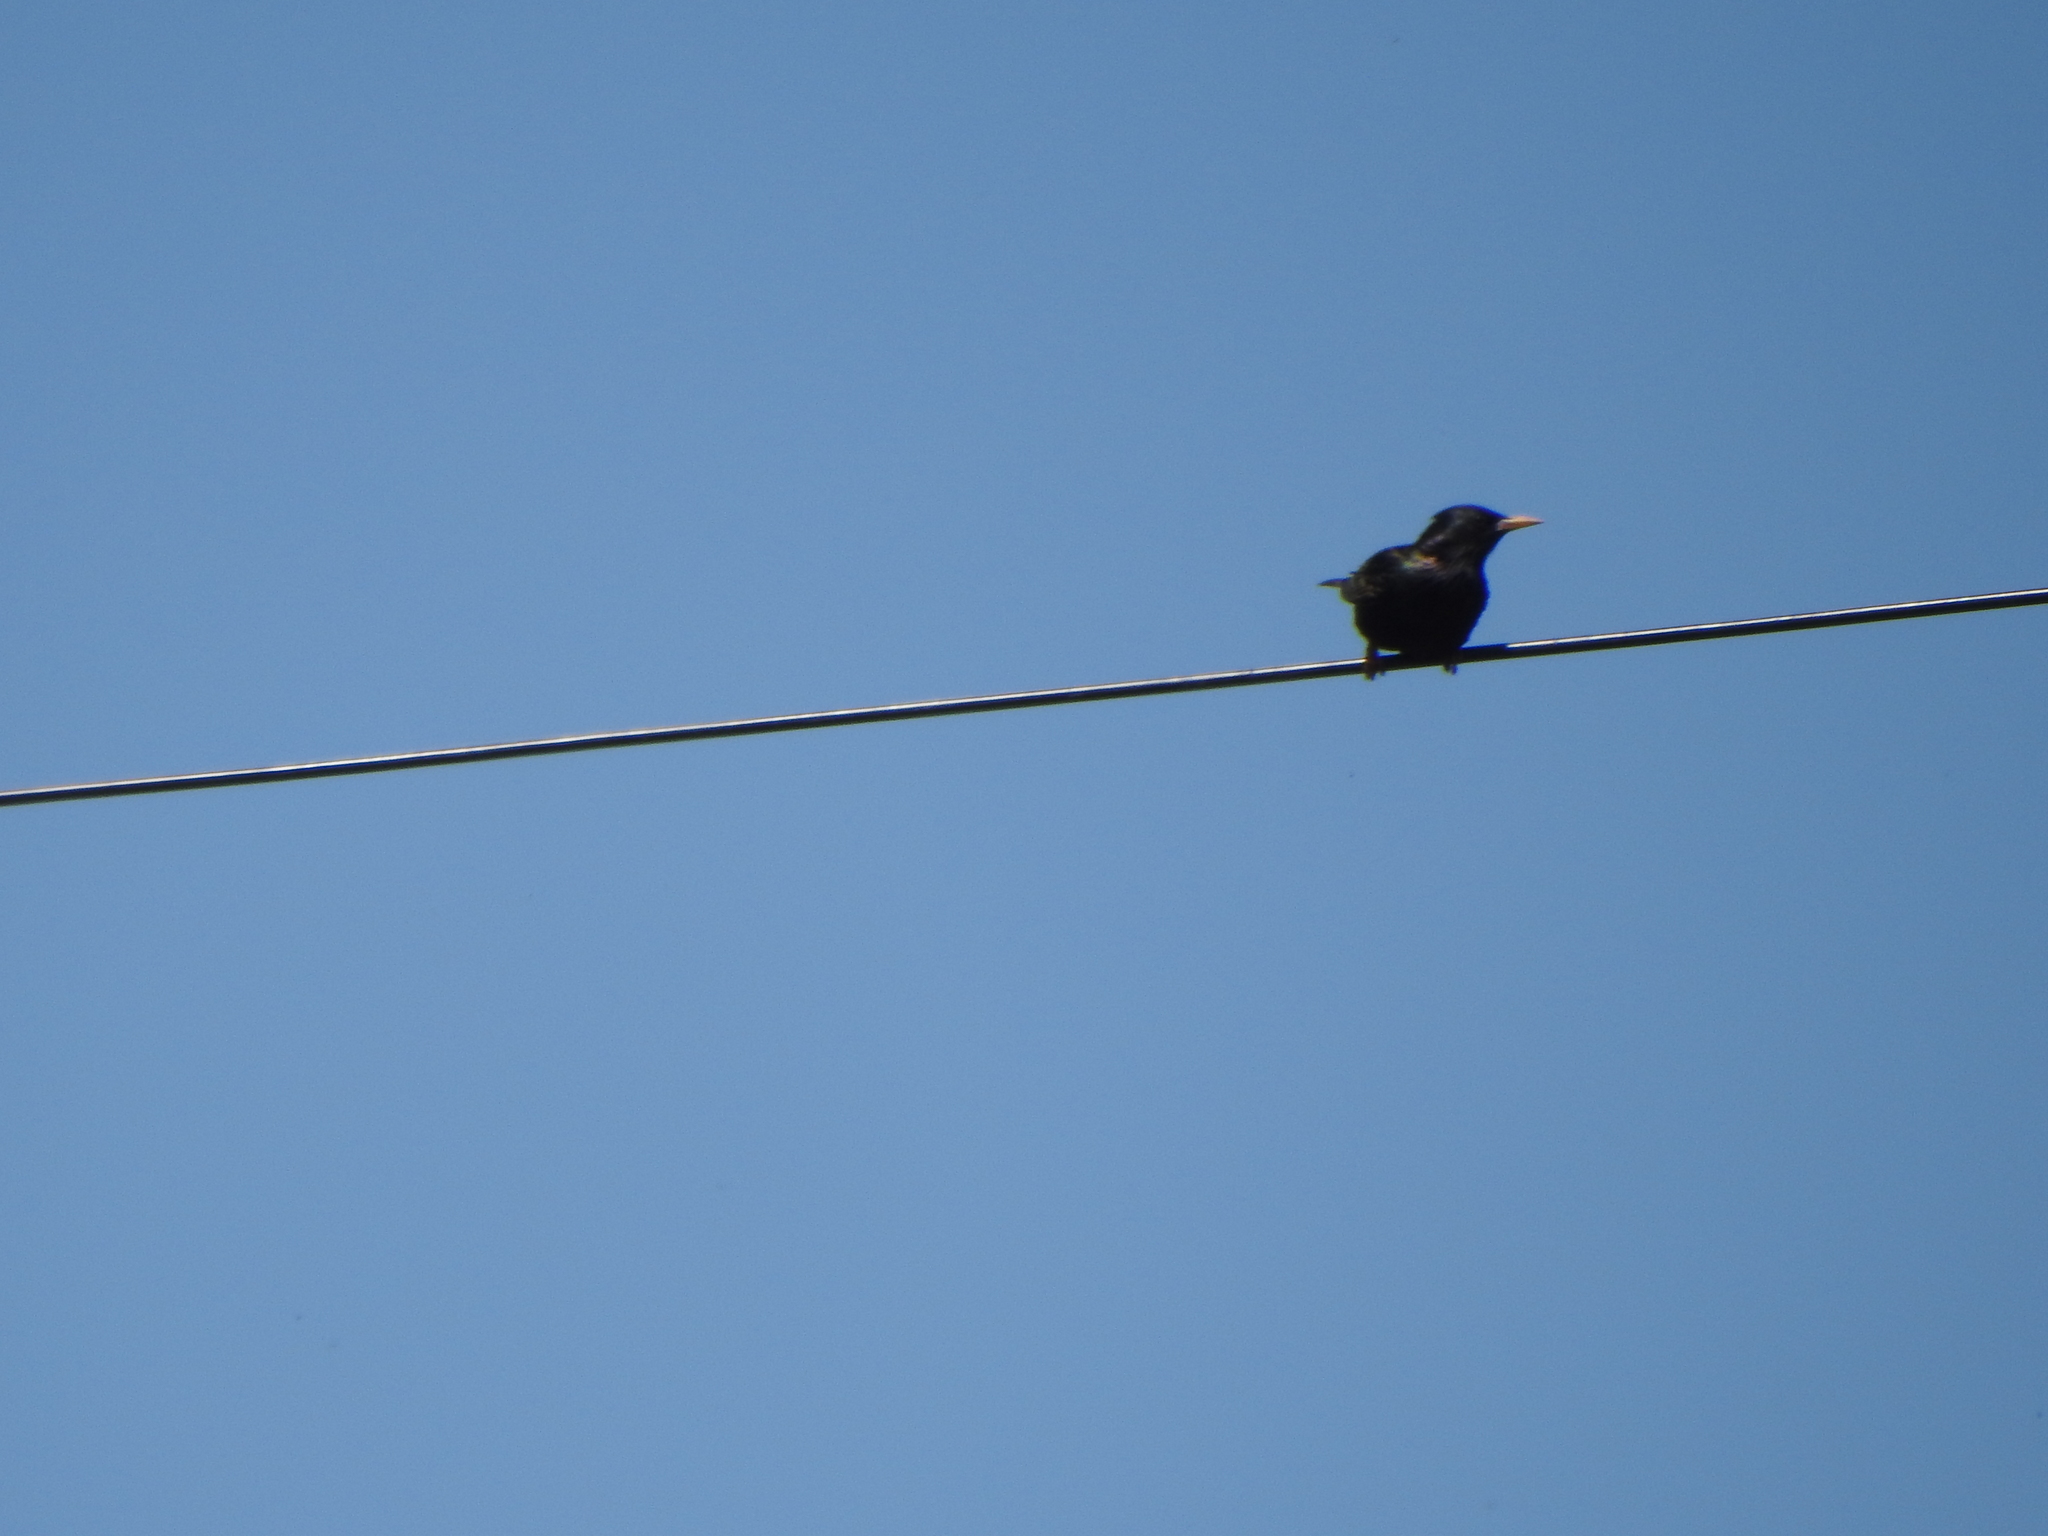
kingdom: Animalia
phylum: Chordata
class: Aves
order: Passeriformes
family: Sturnidae
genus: Sturnus
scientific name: Sturnus vulgaris
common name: Common starling
